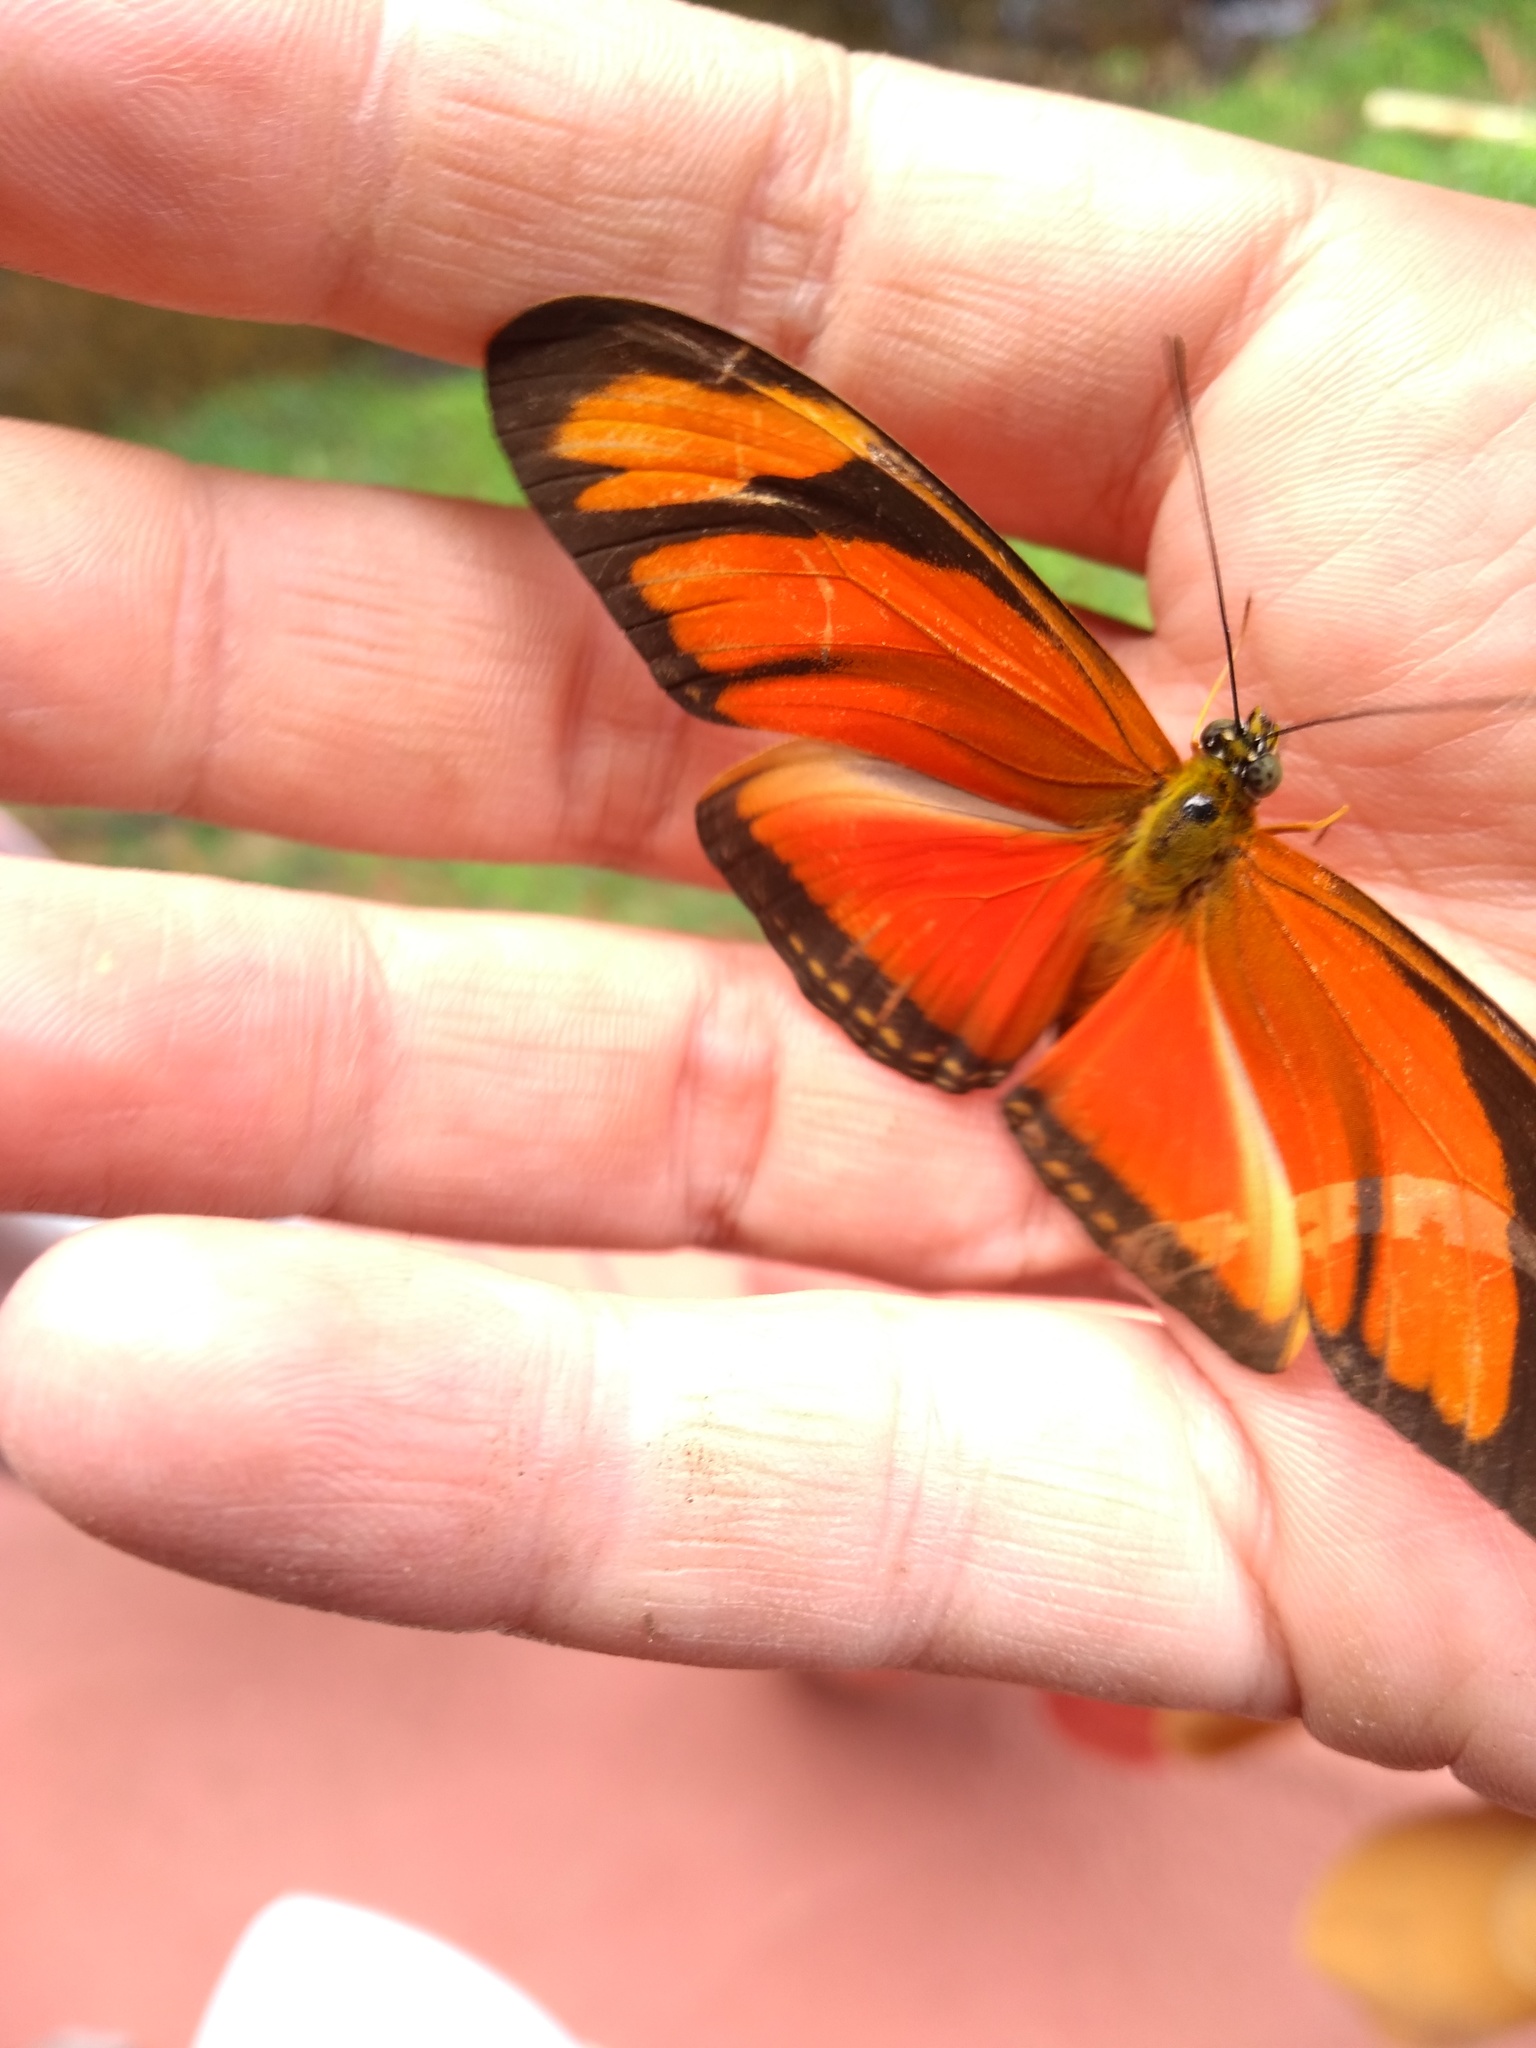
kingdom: Animalia
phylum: Arthropoda
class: Insecta
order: Lepidoptera
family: Nymphalidae
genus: Dryas
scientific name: Dryas iulia
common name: Flambeau
